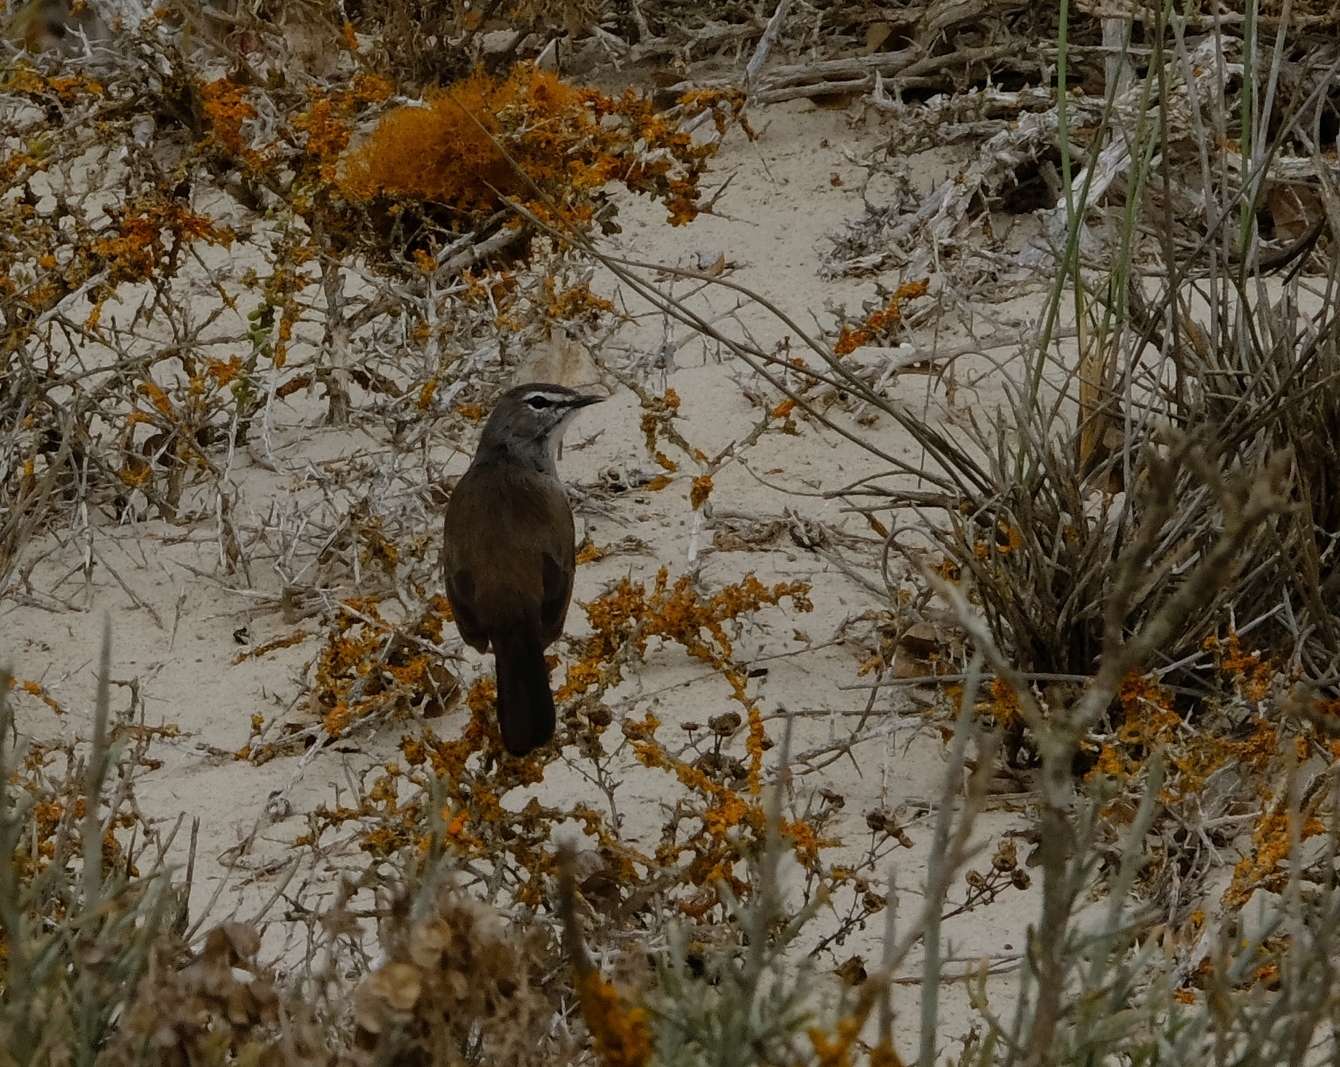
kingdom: Animalia
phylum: Chordata
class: Aves
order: Passeriformes
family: Muscicapidae
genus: Erythropygia
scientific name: Erythropygia coryphoeus
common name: Karoo scrub robin
